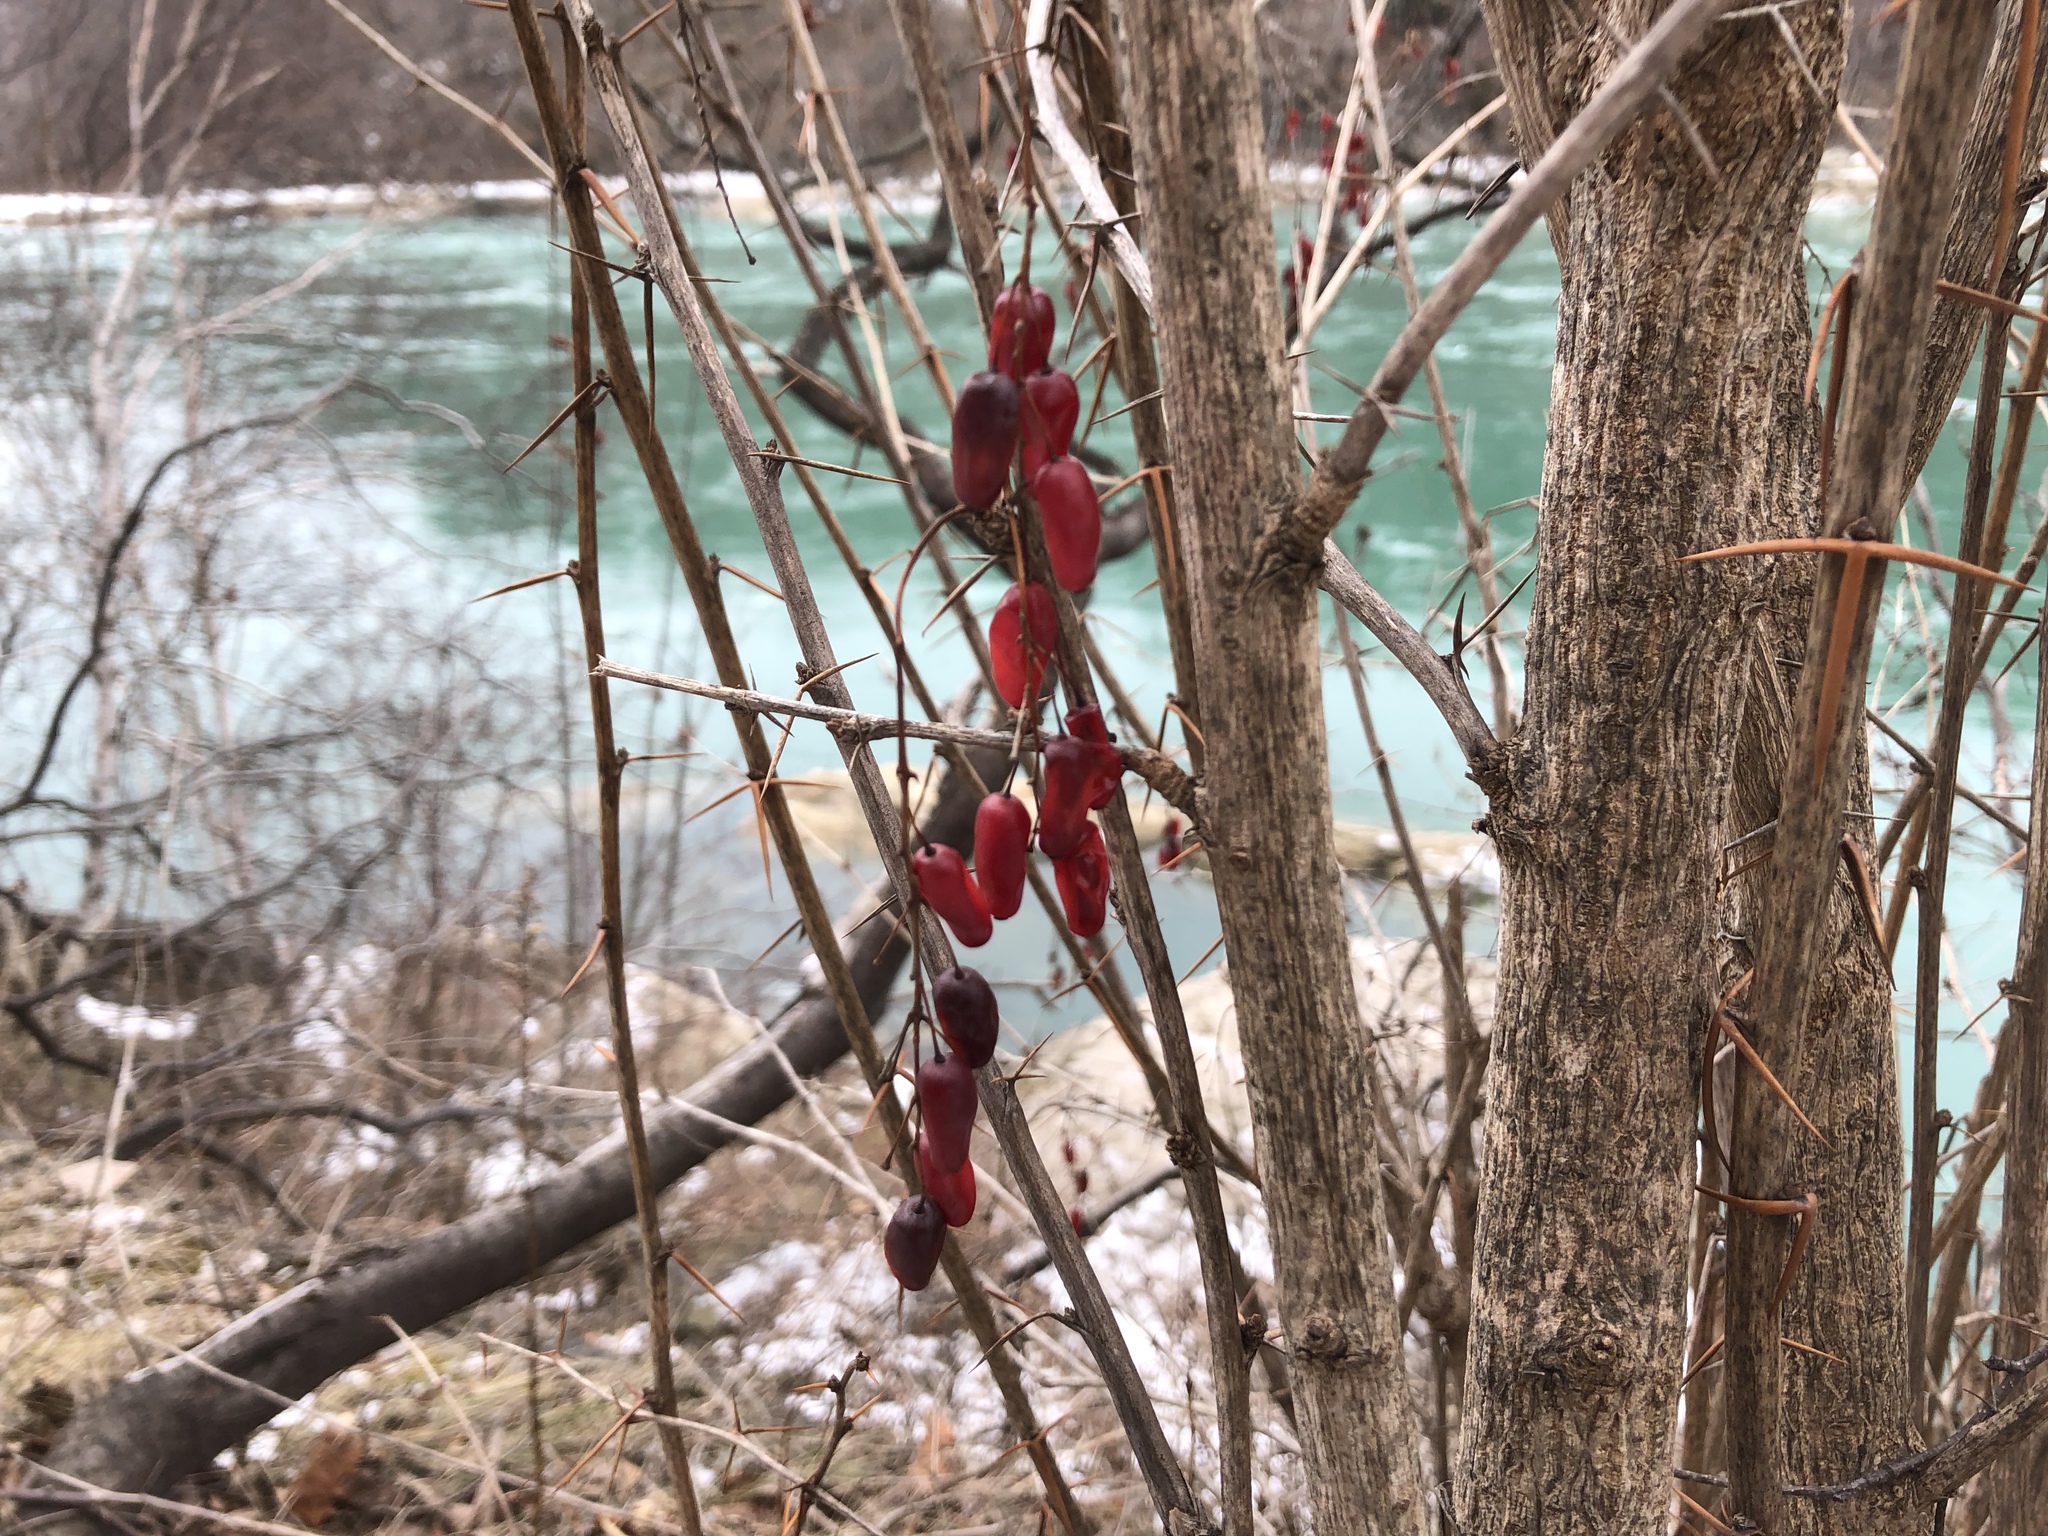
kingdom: Plantae
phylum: Tracheophyta
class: Magnoliopsida
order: Ranunculales
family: Berberidaceae
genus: Berberis
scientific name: Berberis vulgaris
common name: Barberry
